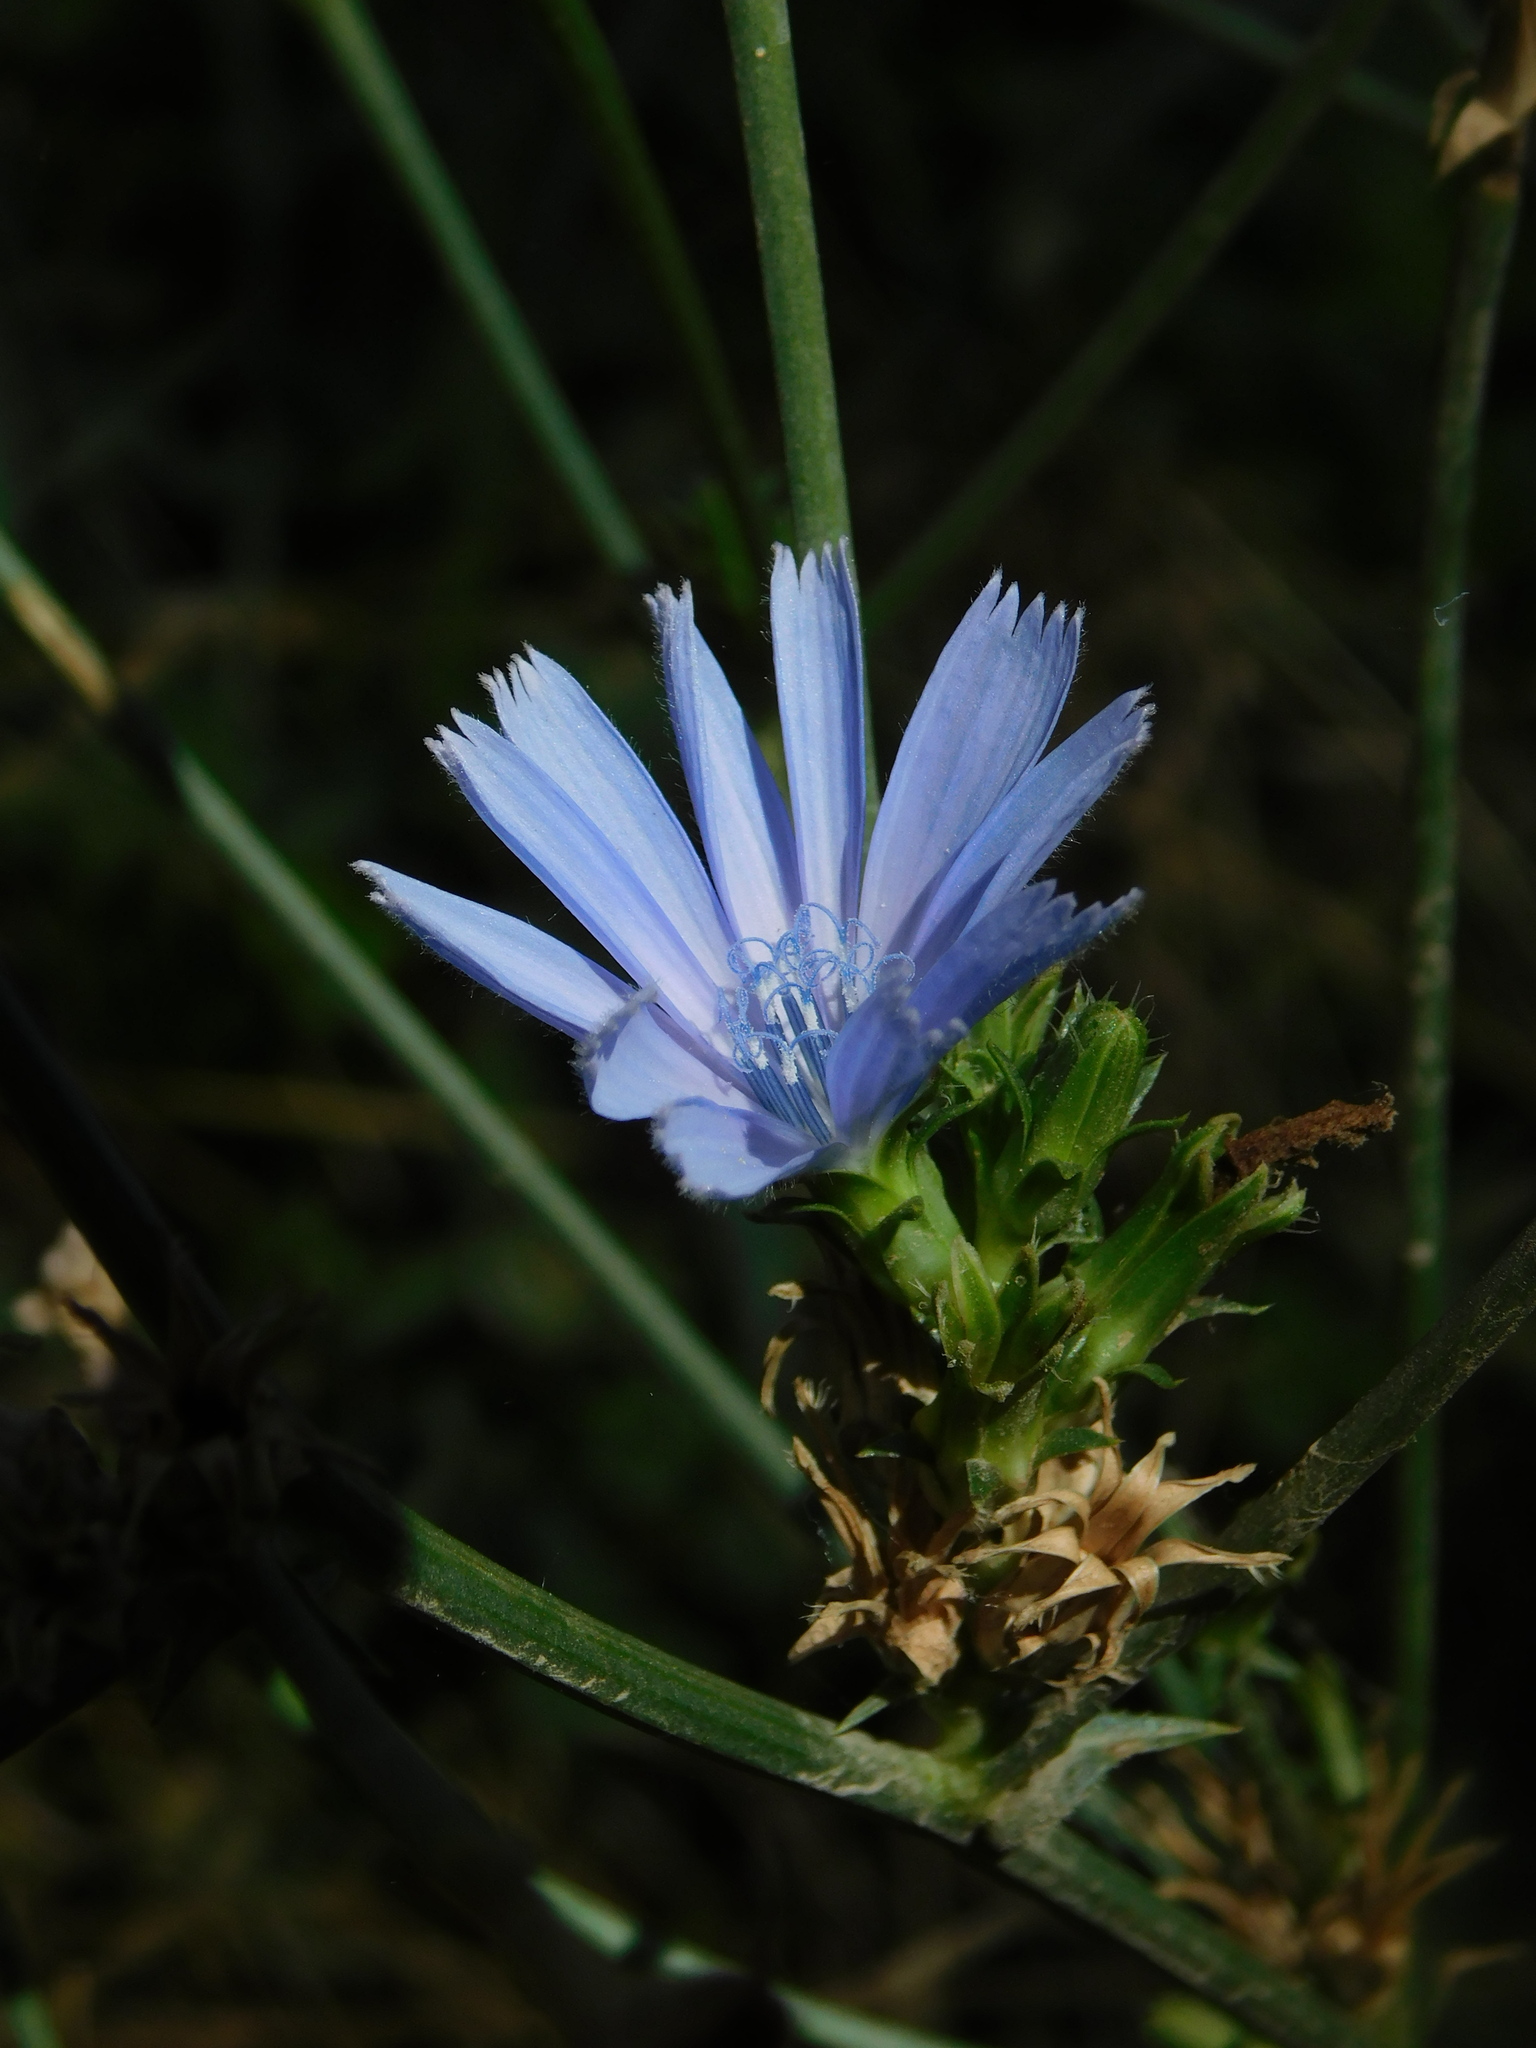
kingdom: Plantae
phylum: Tracheophyta
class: Magnoliopsida
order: Asterales
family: Asteraceae
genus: Cichorium
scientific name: Cichorium intybus
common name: Chicory
